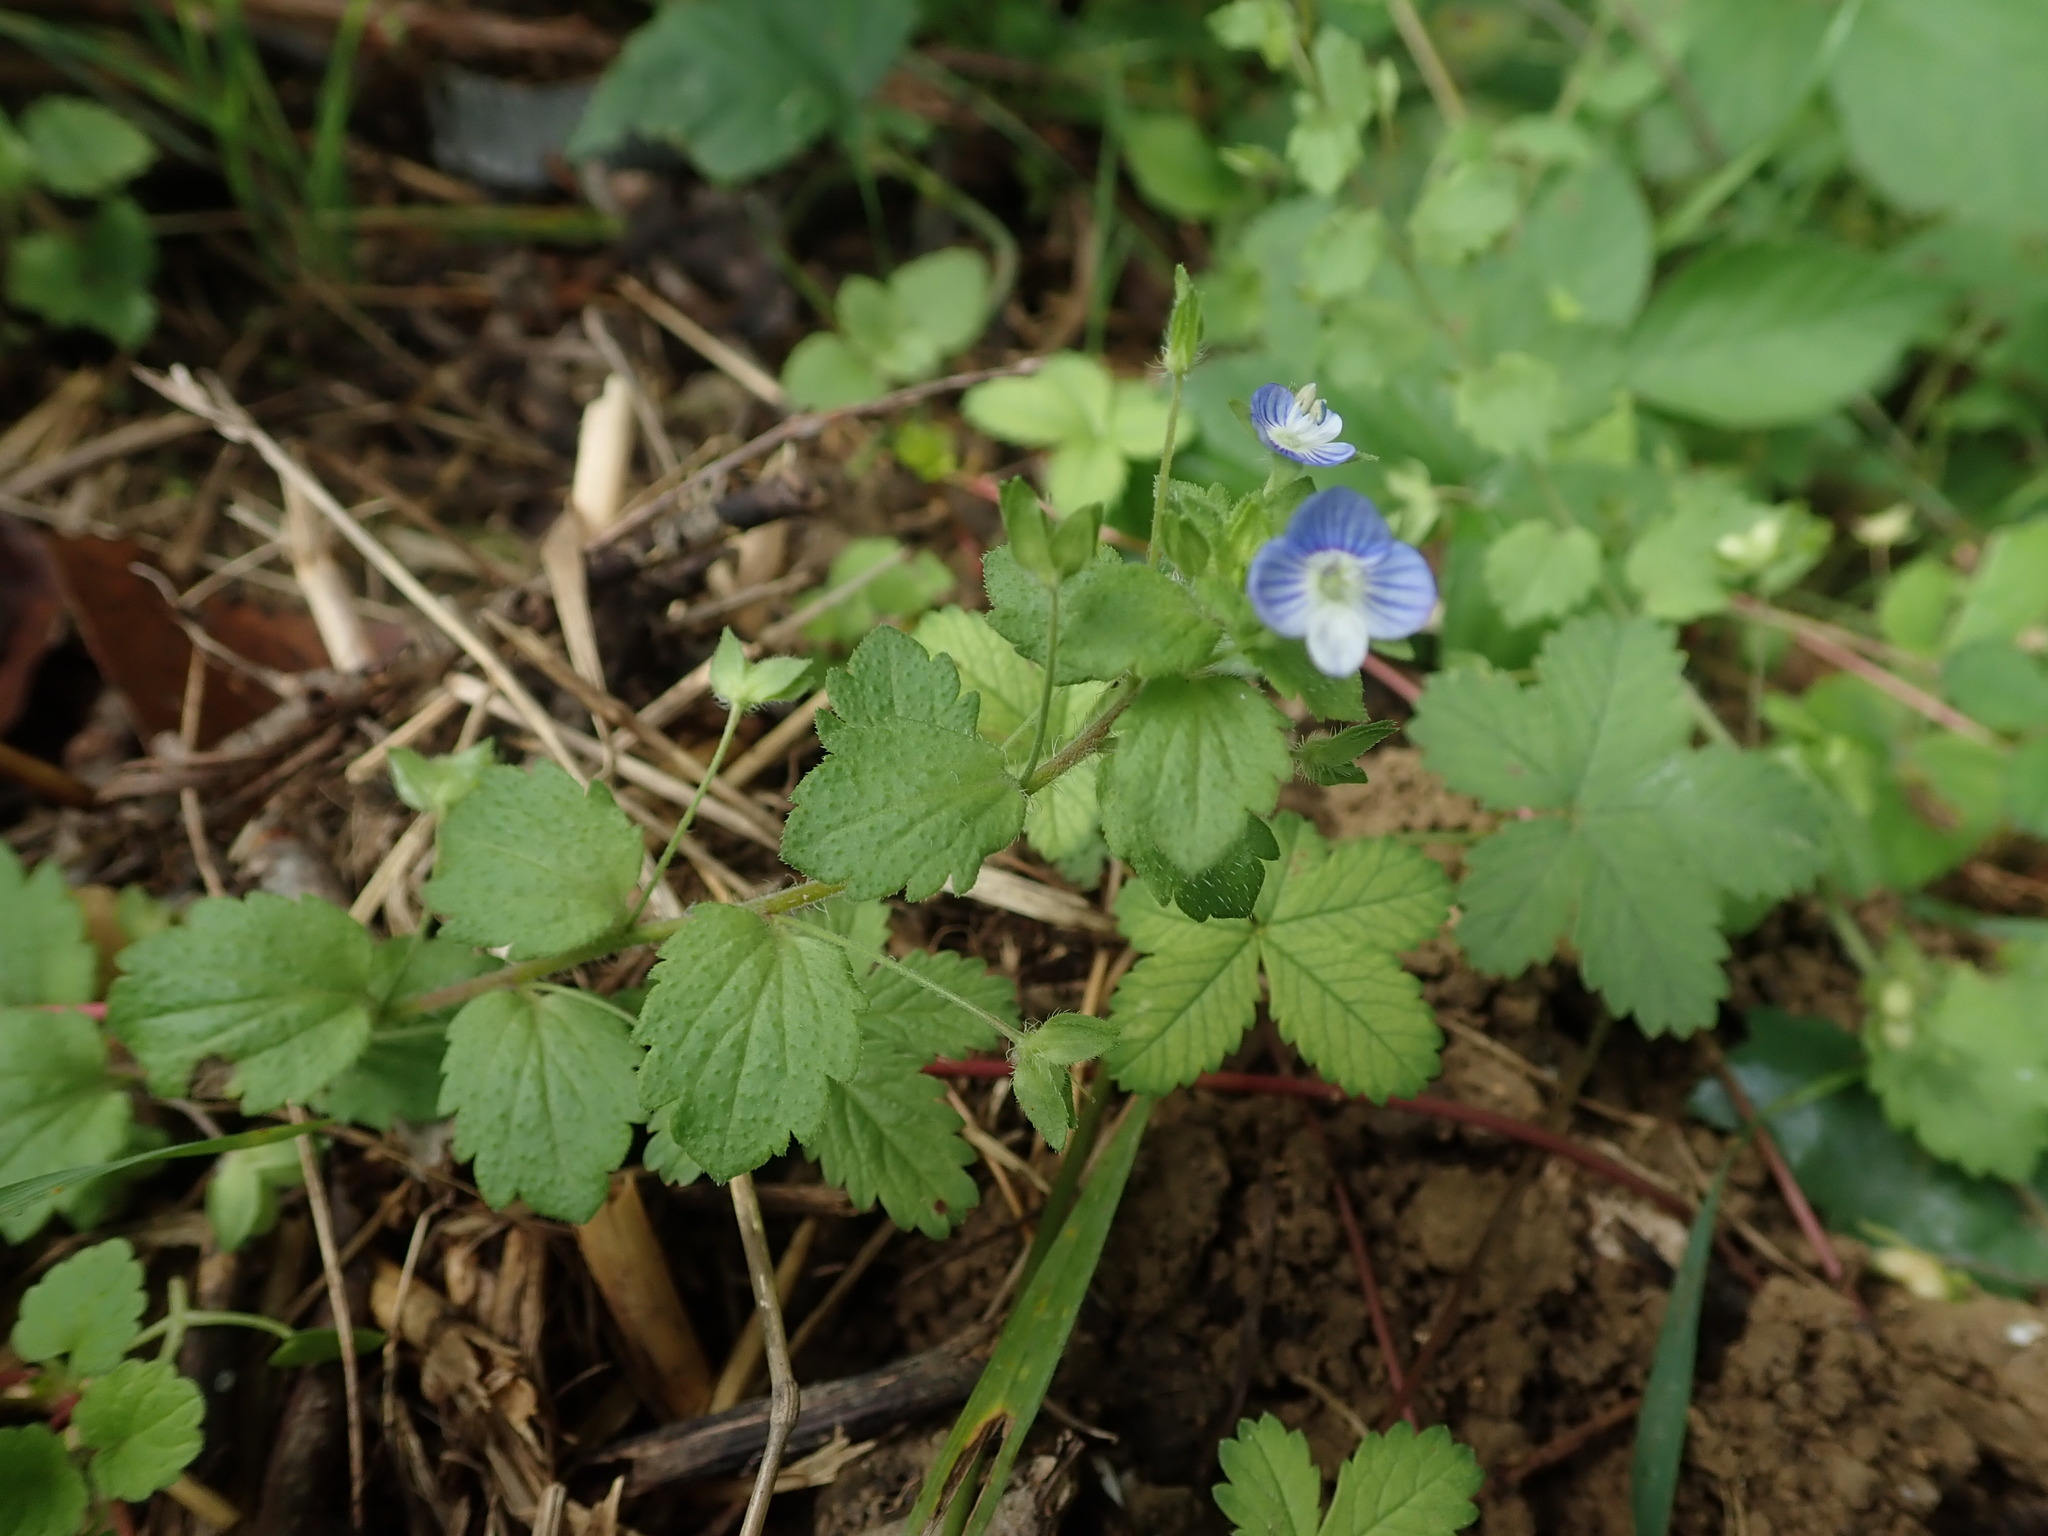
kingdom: Plantae
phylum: Tracheophyta
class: Magnoliopsida
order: Lamiales
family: Plantaginaceae
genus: Veronica
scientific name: Veronica persica
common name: Common field-speedwell
